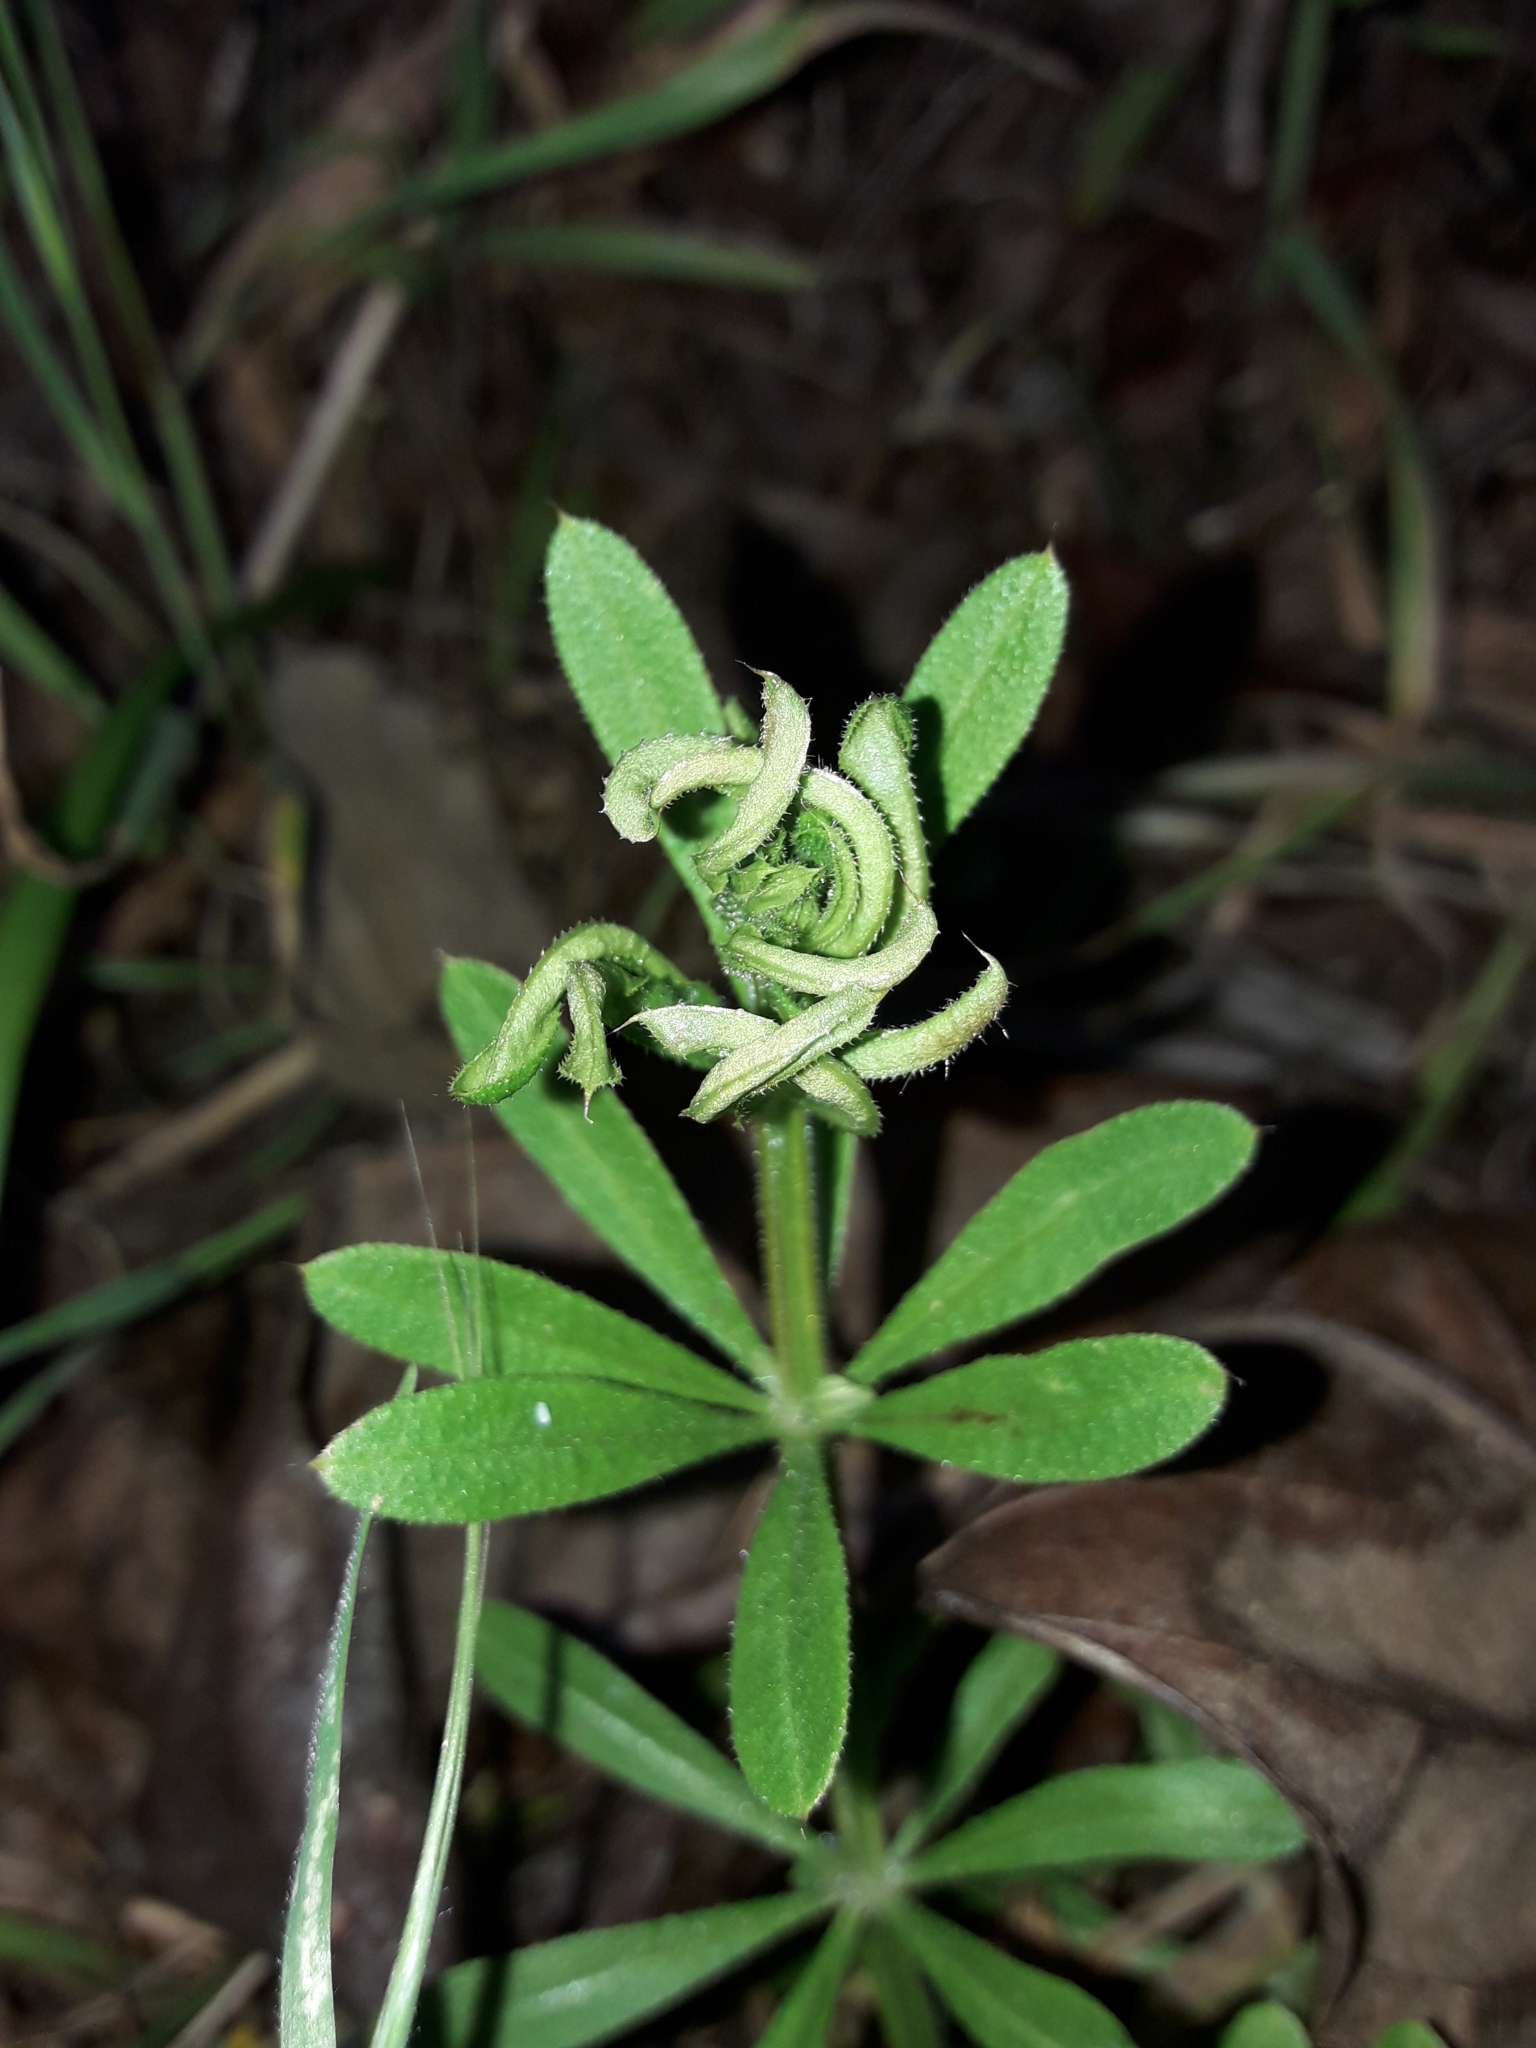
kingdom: Animalia
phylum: Arthropoda
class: Arachnida
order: Trombidiformes
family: Eriophyidae
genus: Cecidophyes
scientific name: Cecidophyes rouhollahi
